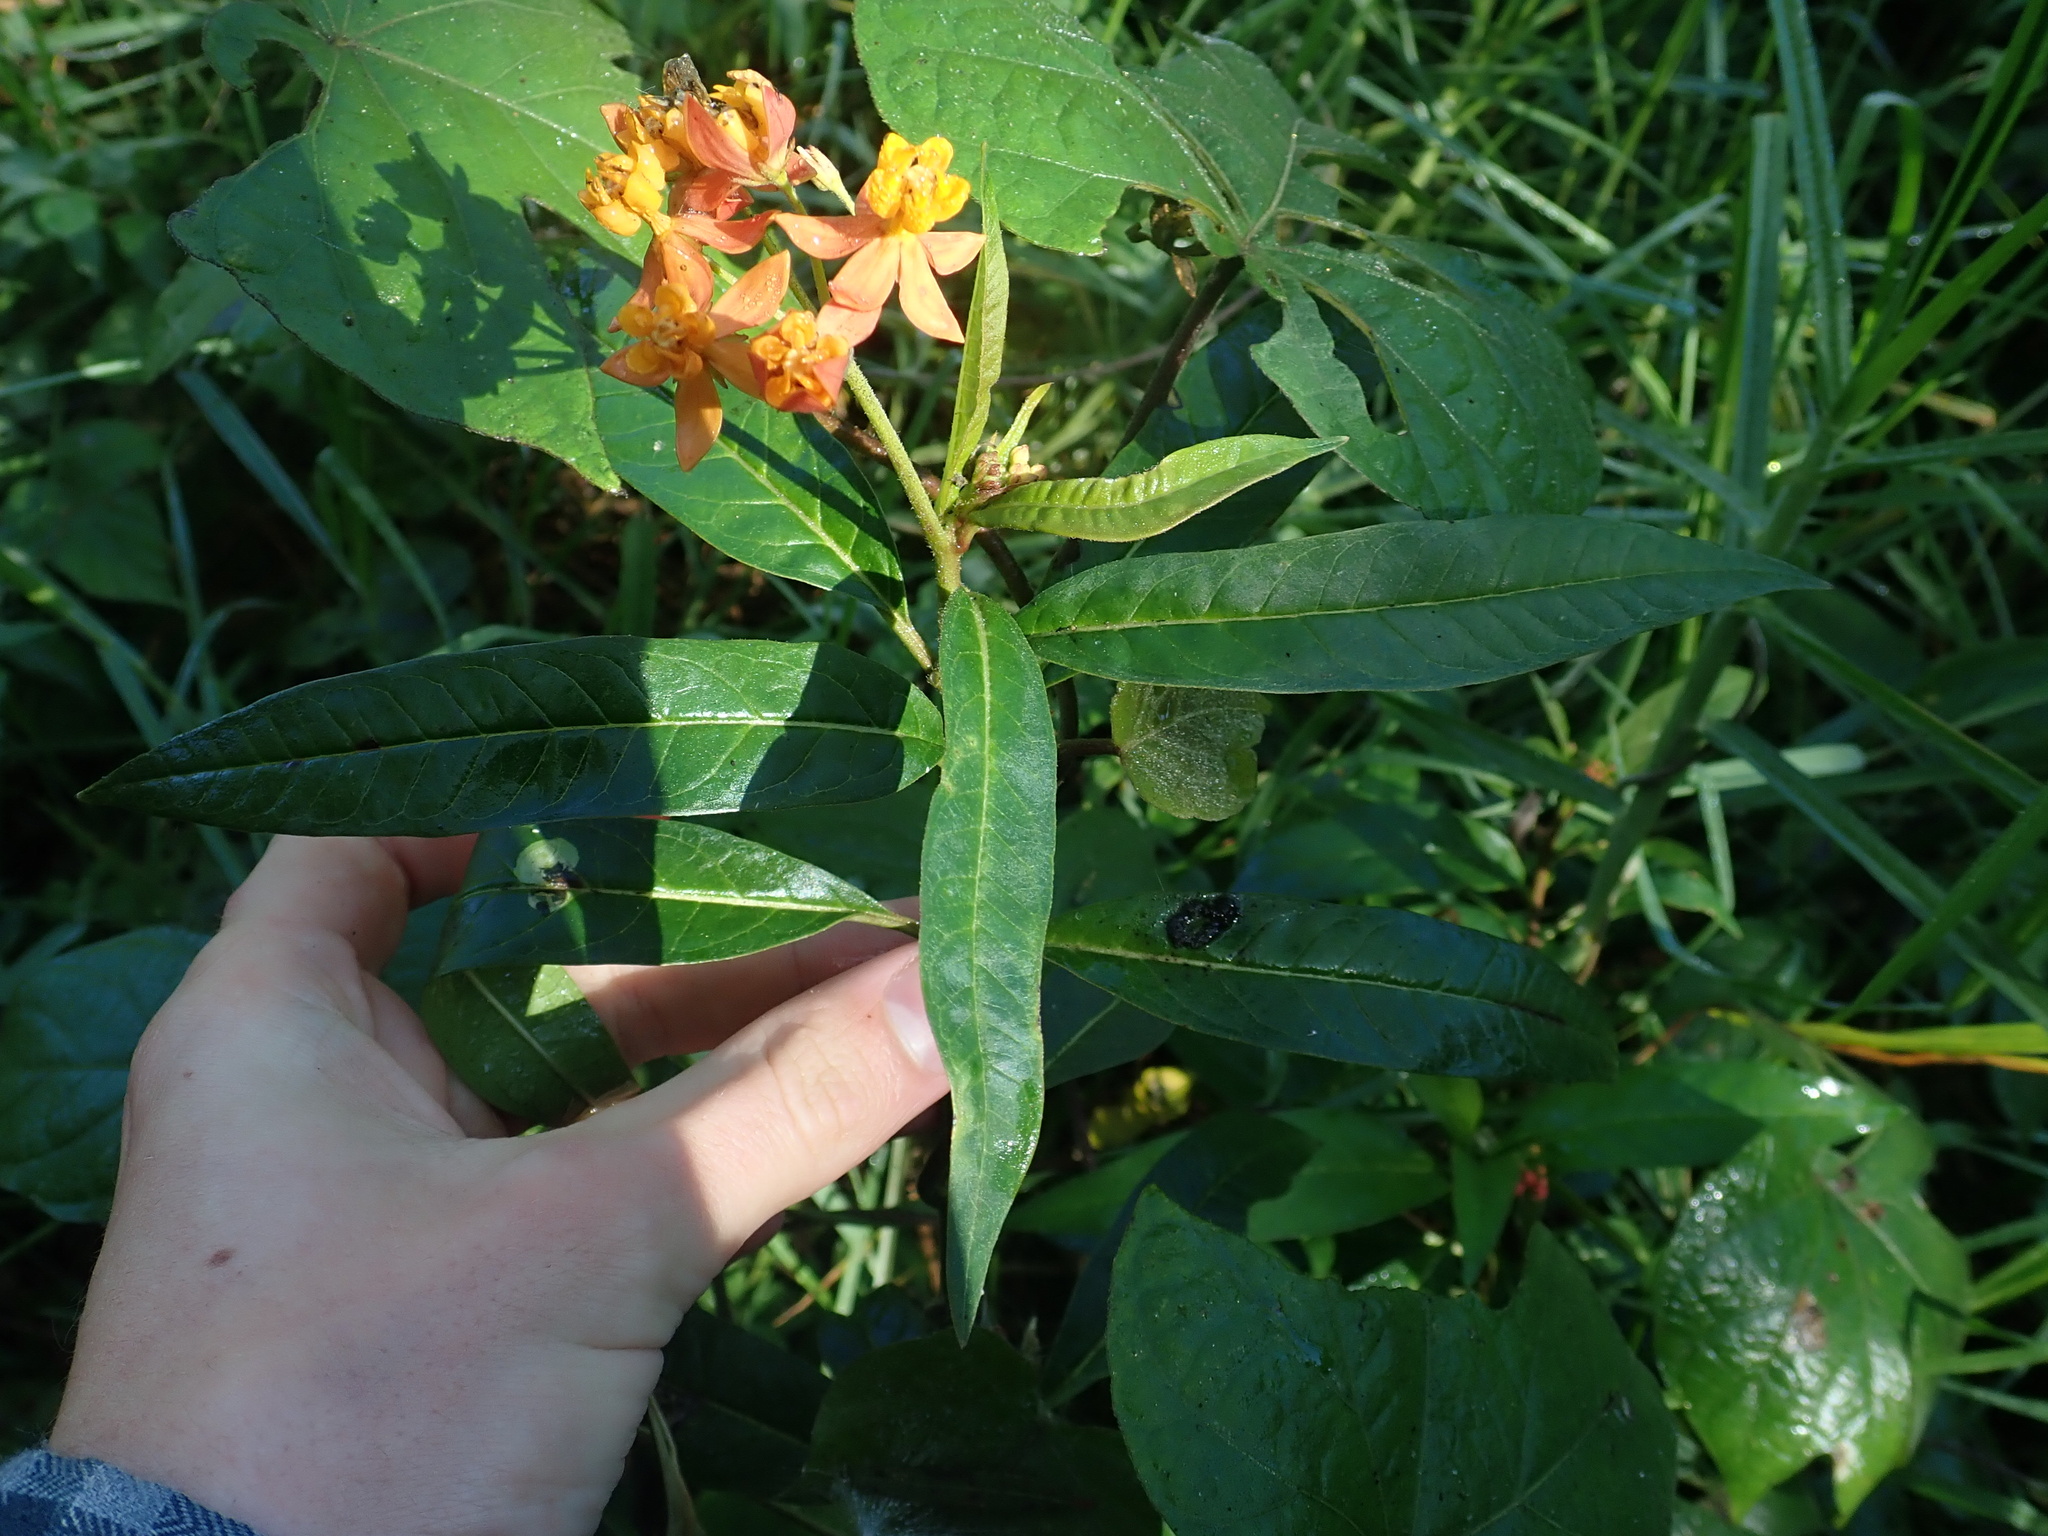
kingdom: Plantae
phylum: Tracheophyta
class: Magnoliopsida
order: Gentianales
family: Apocynaceae
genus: Asclepias
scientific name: Asclepias curassavica
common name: Bloodflower
